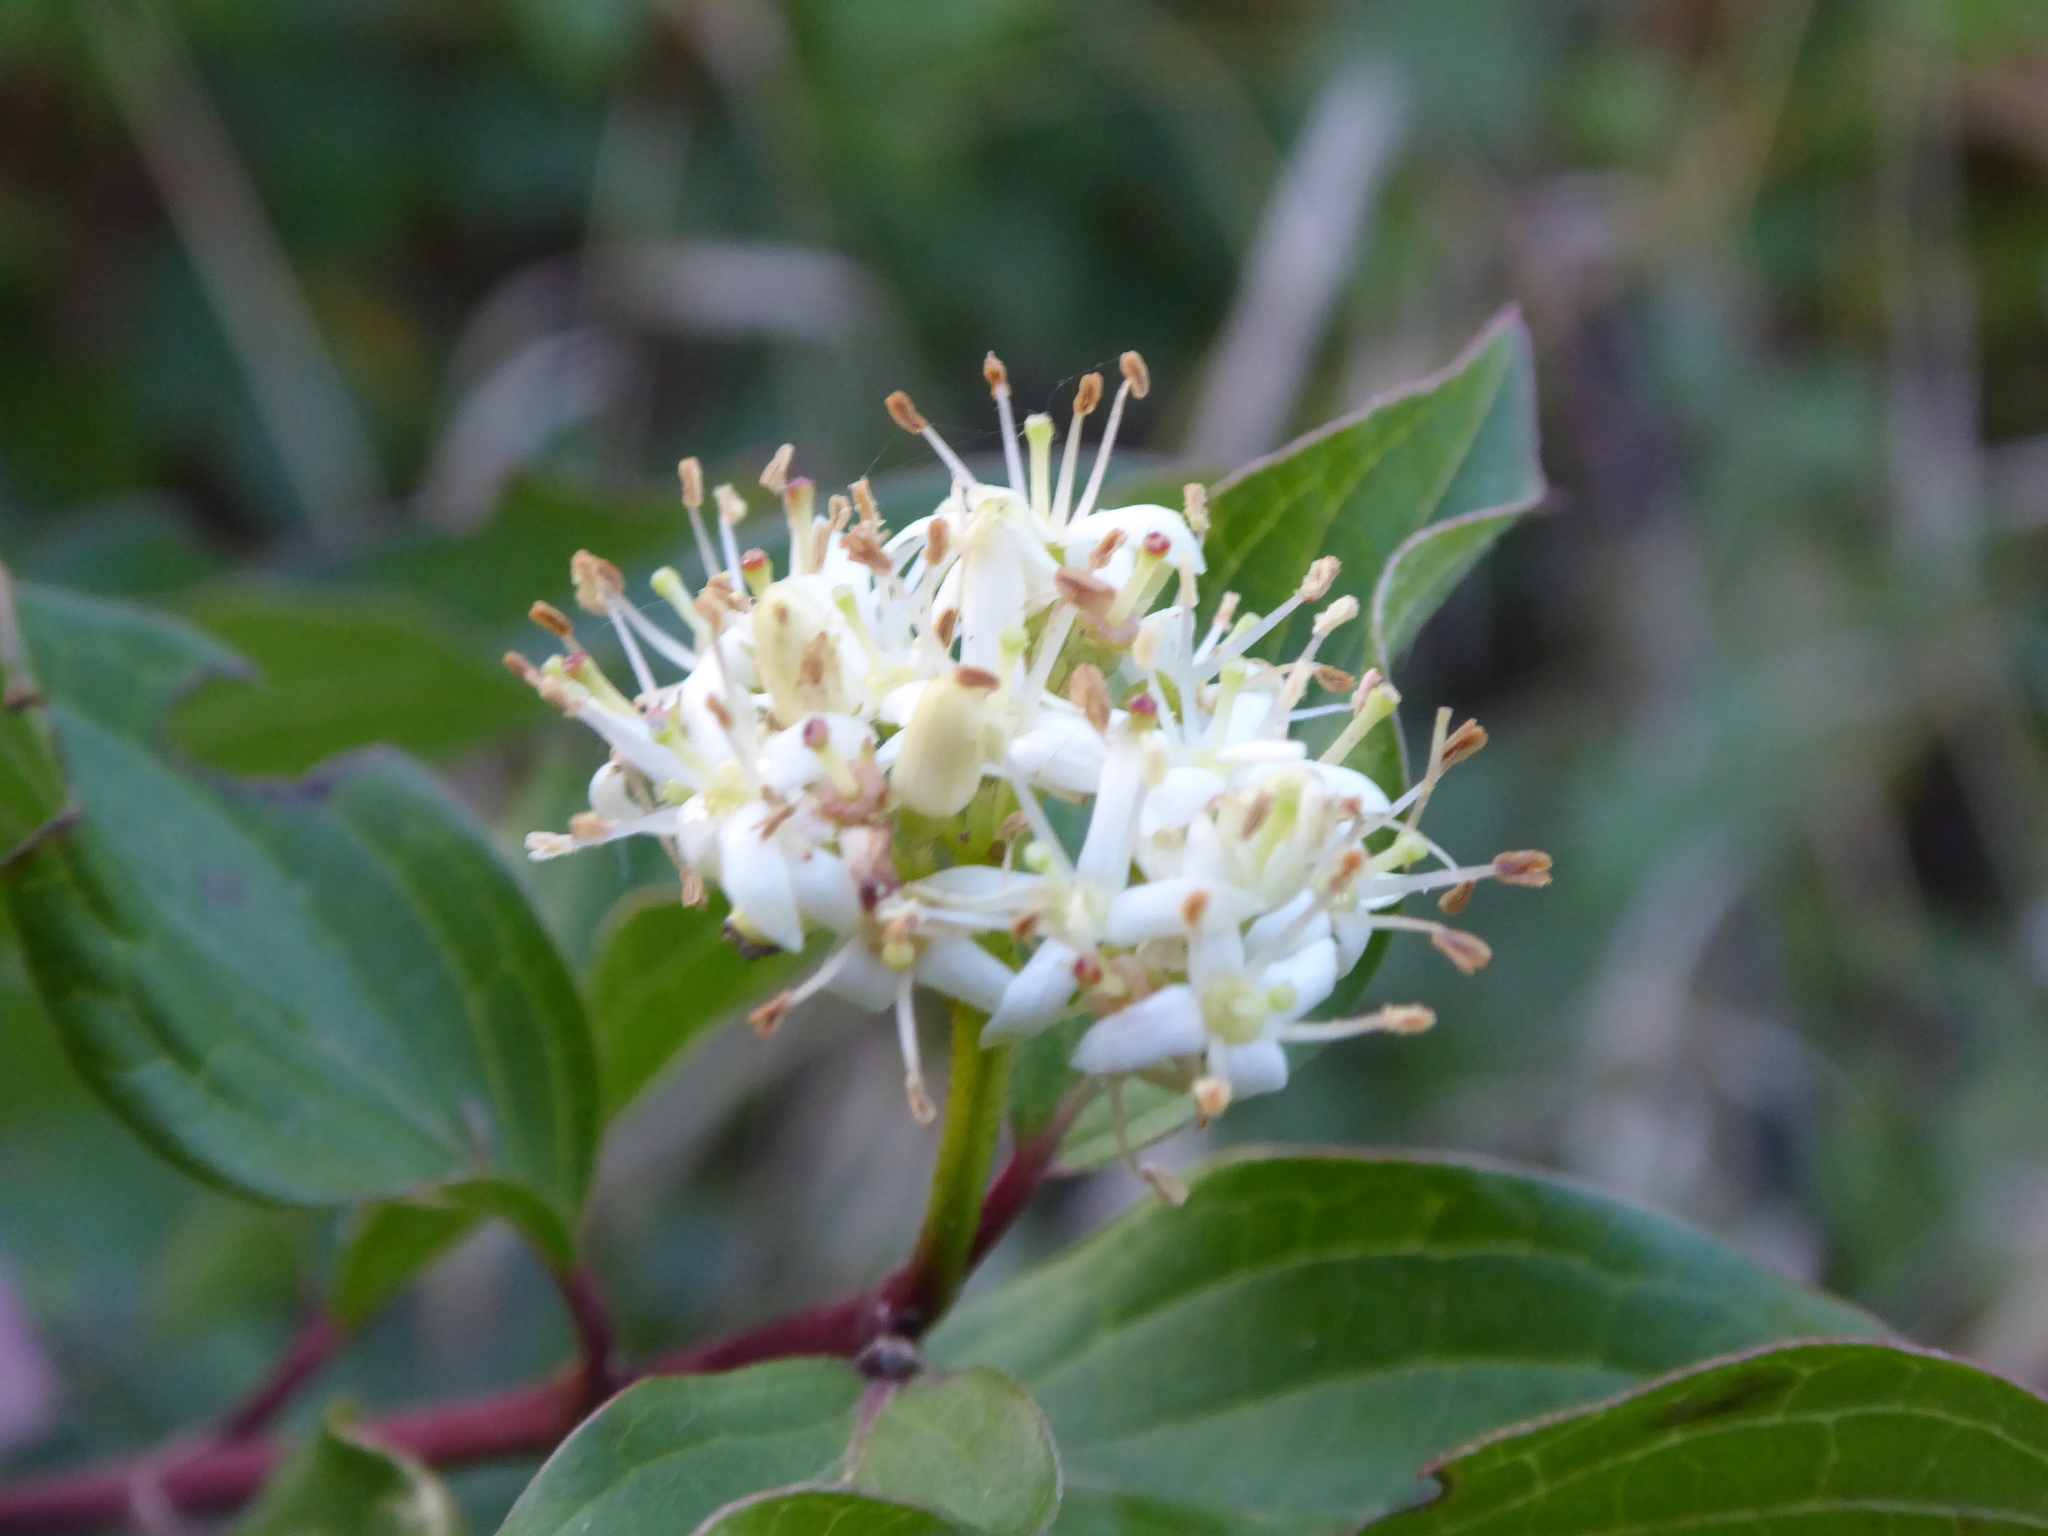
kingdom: Plantae
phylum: Tracheophyta
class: Magnoliopsida
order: Cornales
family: Cornaceae
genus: Cornus
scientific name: Cornus sanguinea
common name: Dogwood
